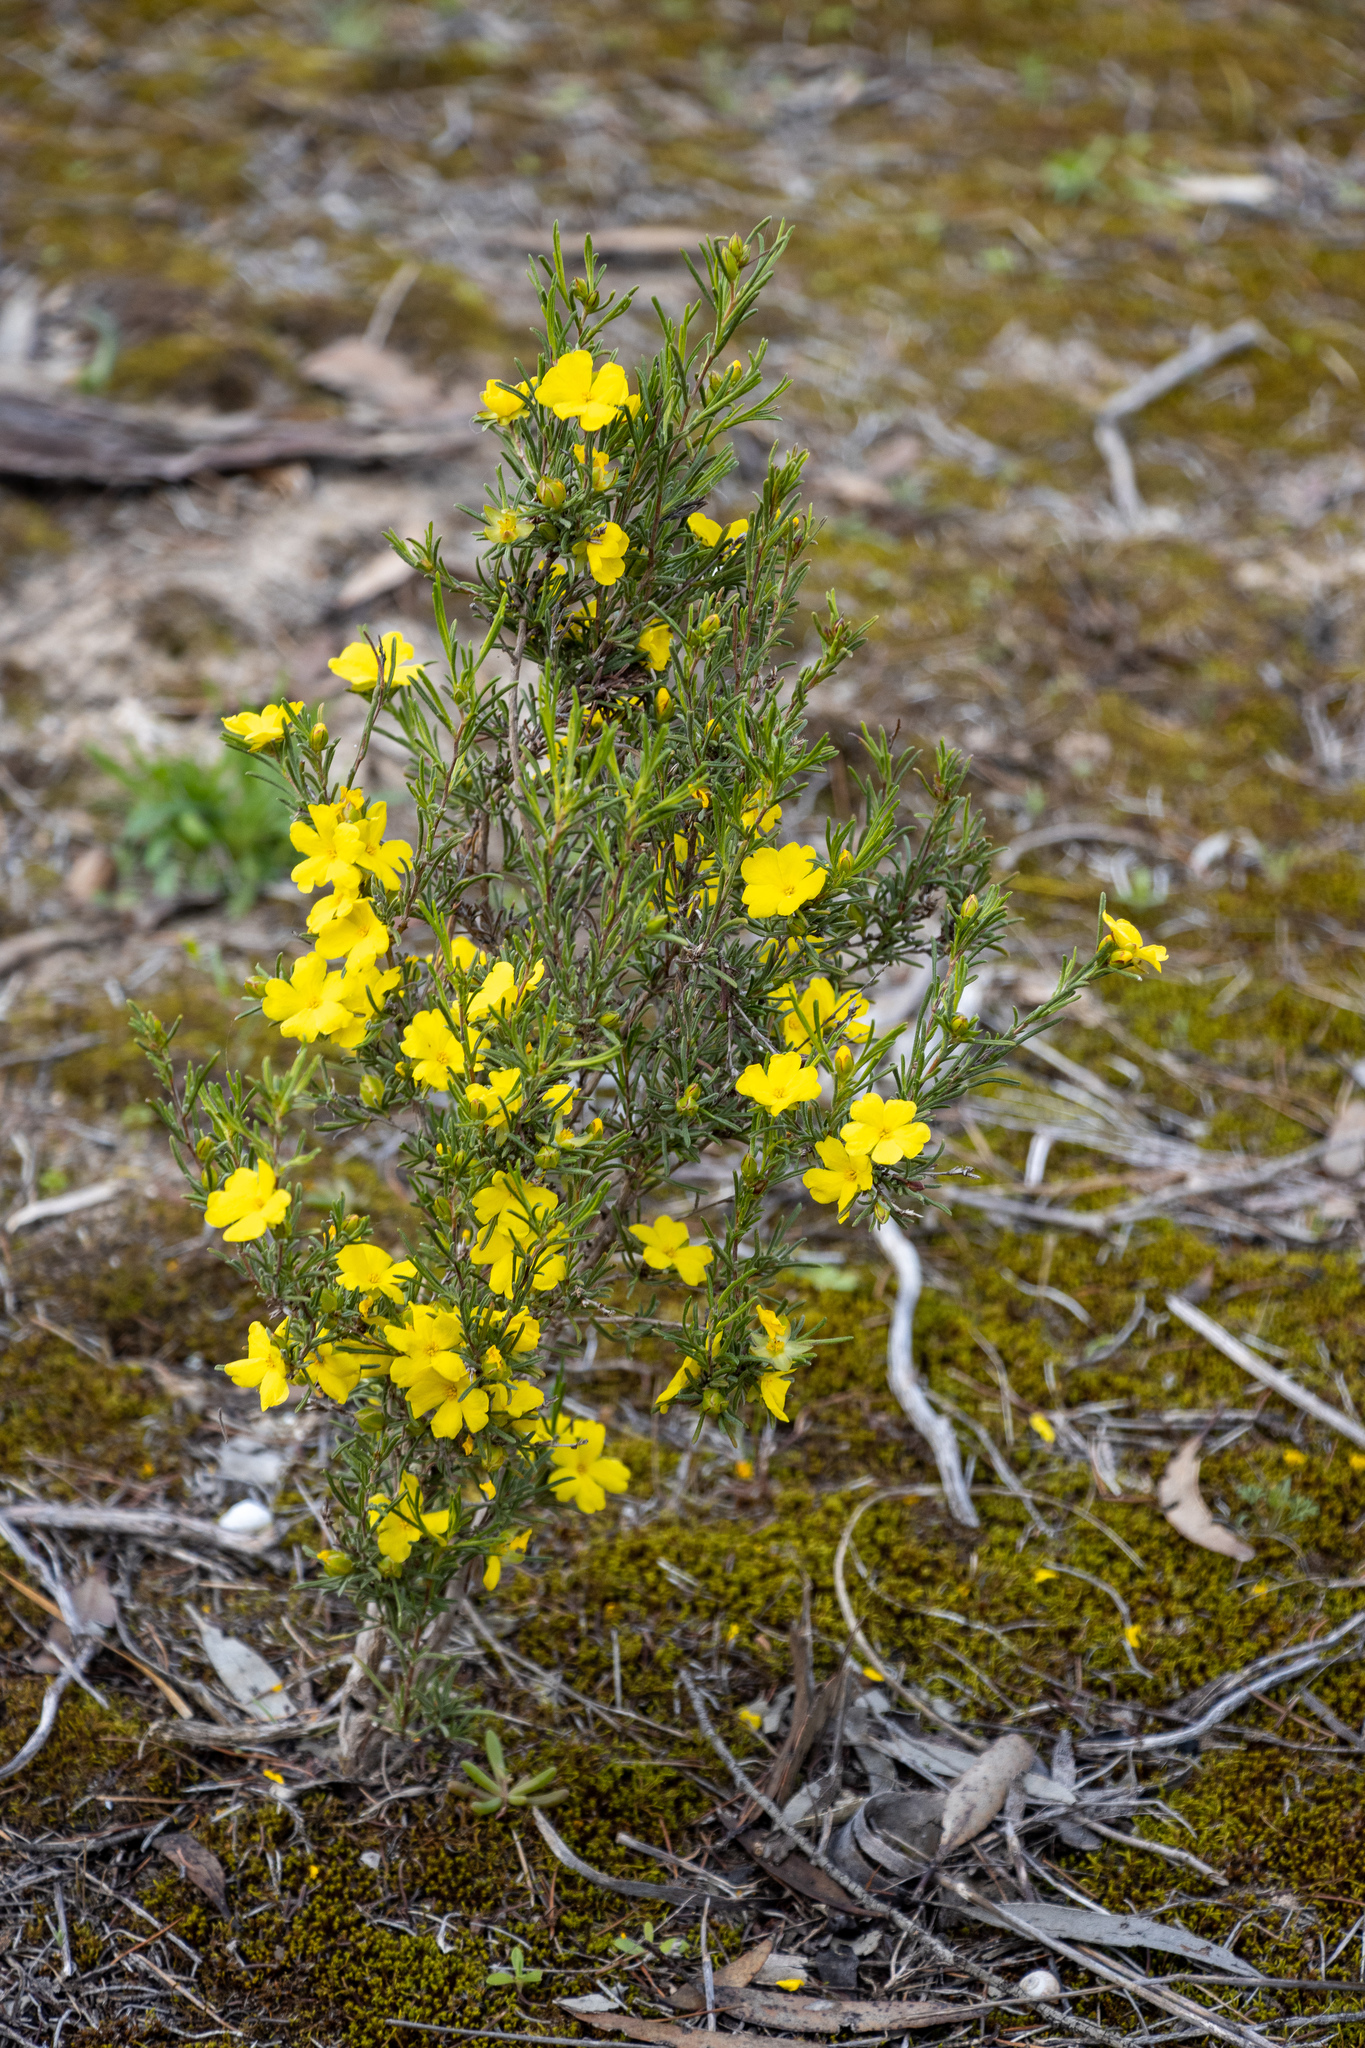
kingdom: Plantae
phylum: Tracheophyta
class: Magnoliopsida
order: Dilleniales
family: Dilleniaceae
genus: Hibbertia
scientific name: Hibbertia virgata
